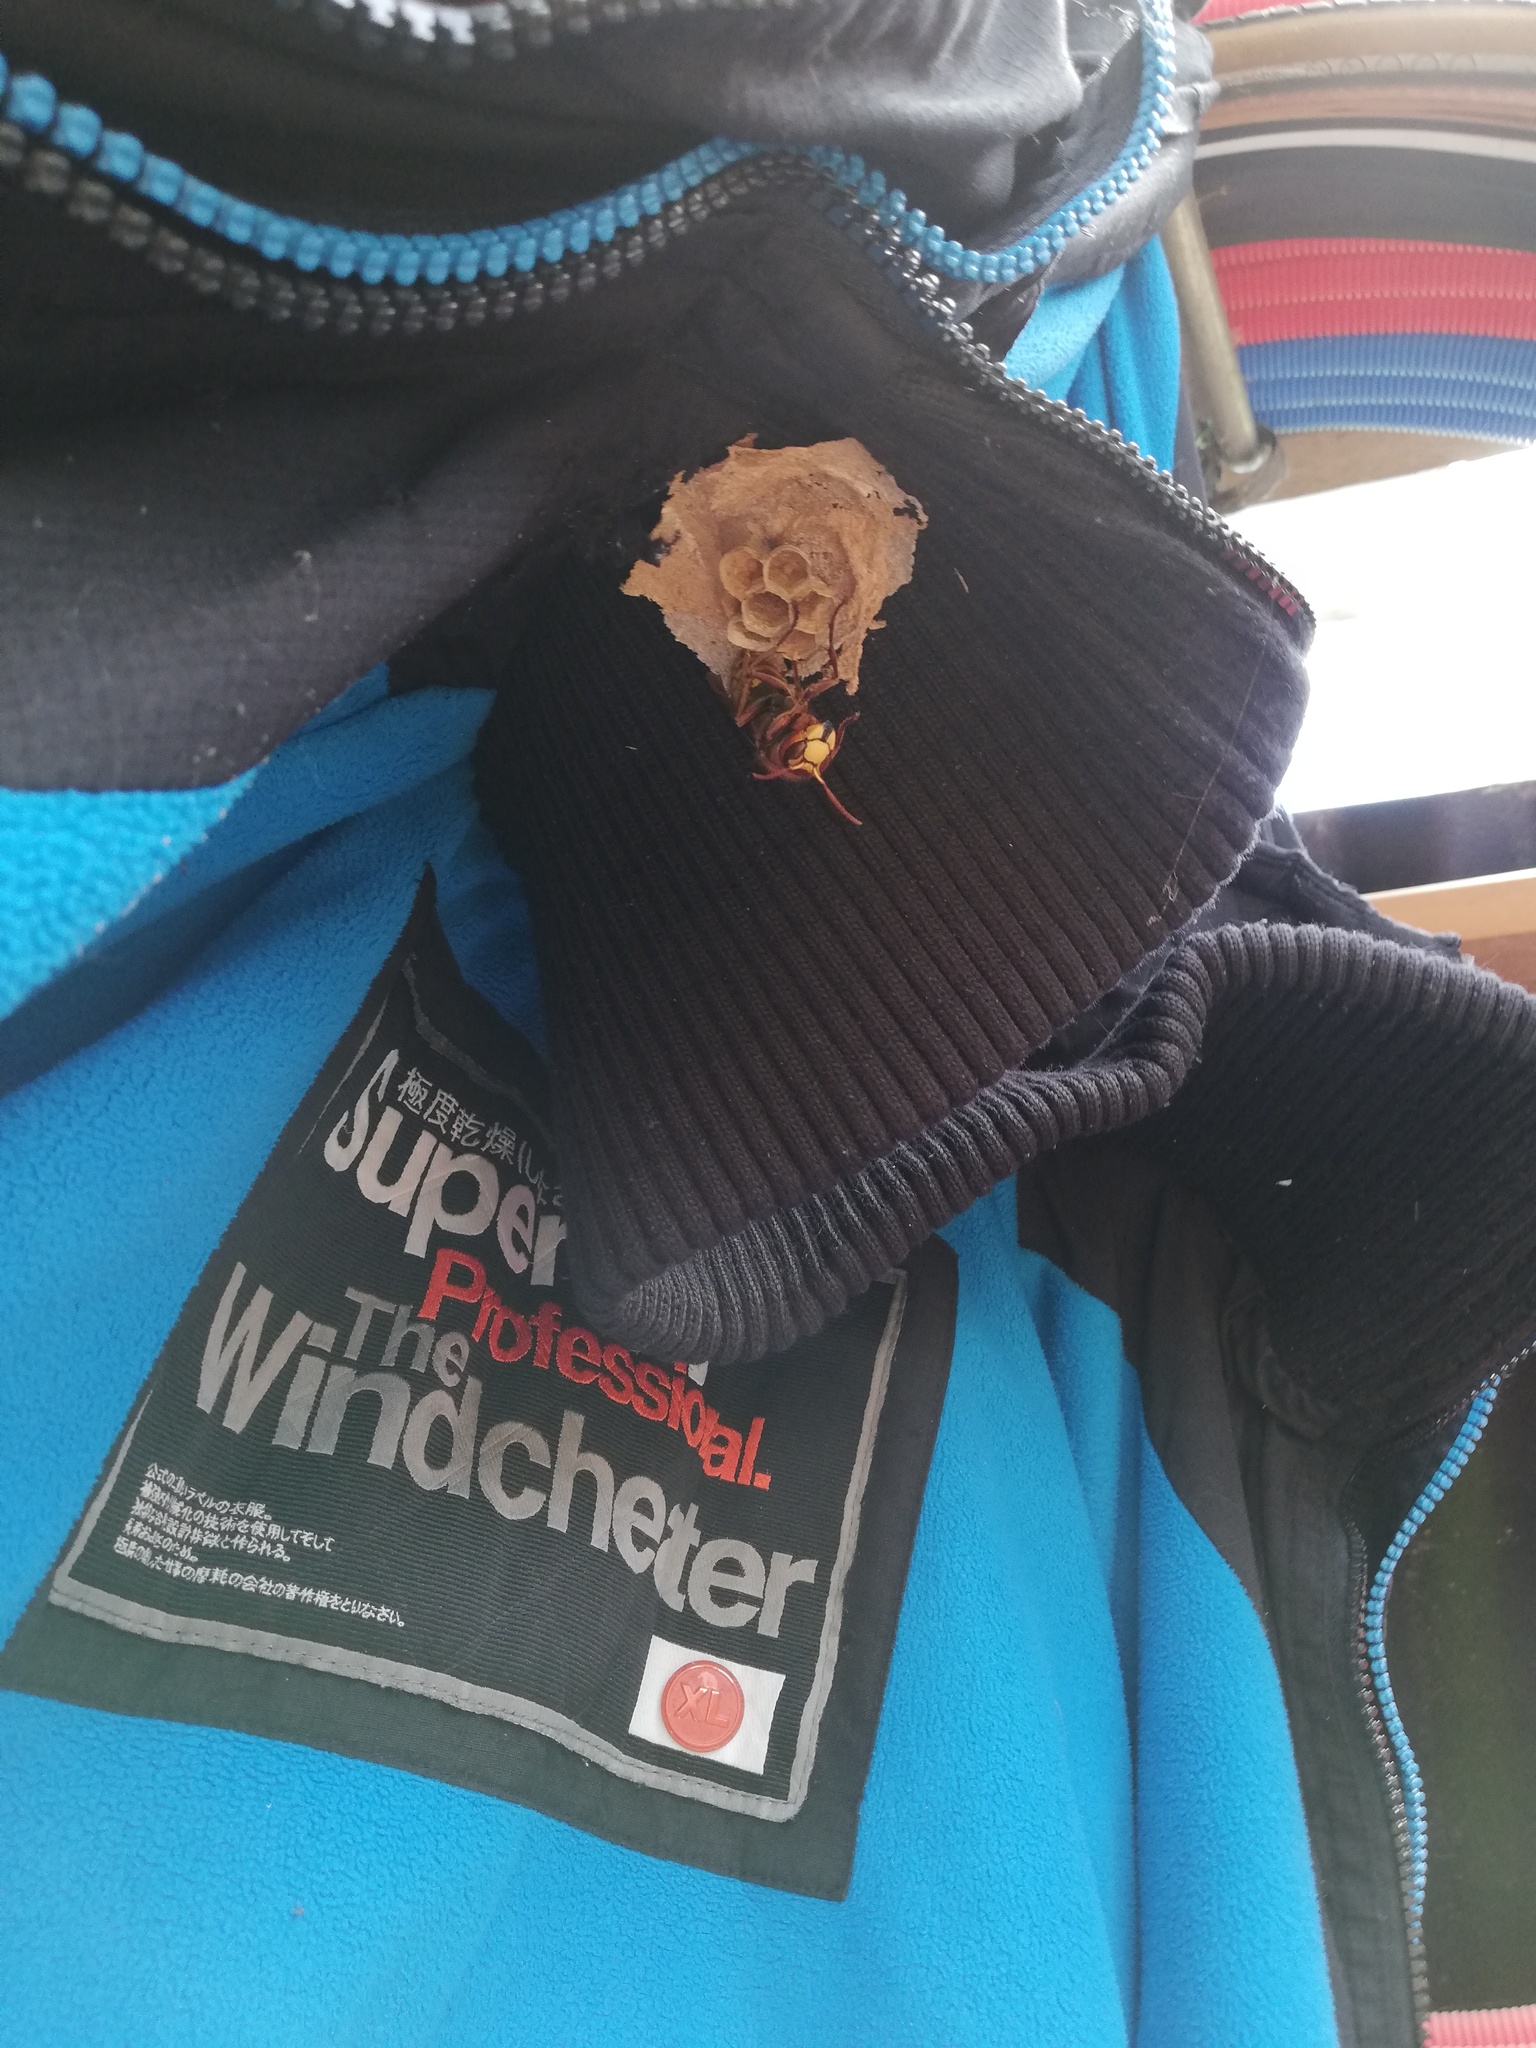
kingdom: Animalia
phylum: Arthropoda
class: Insecta
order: Hymenoptera
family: Vespidae
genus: Vespa
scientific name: Vespa crabro
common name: Hornet
